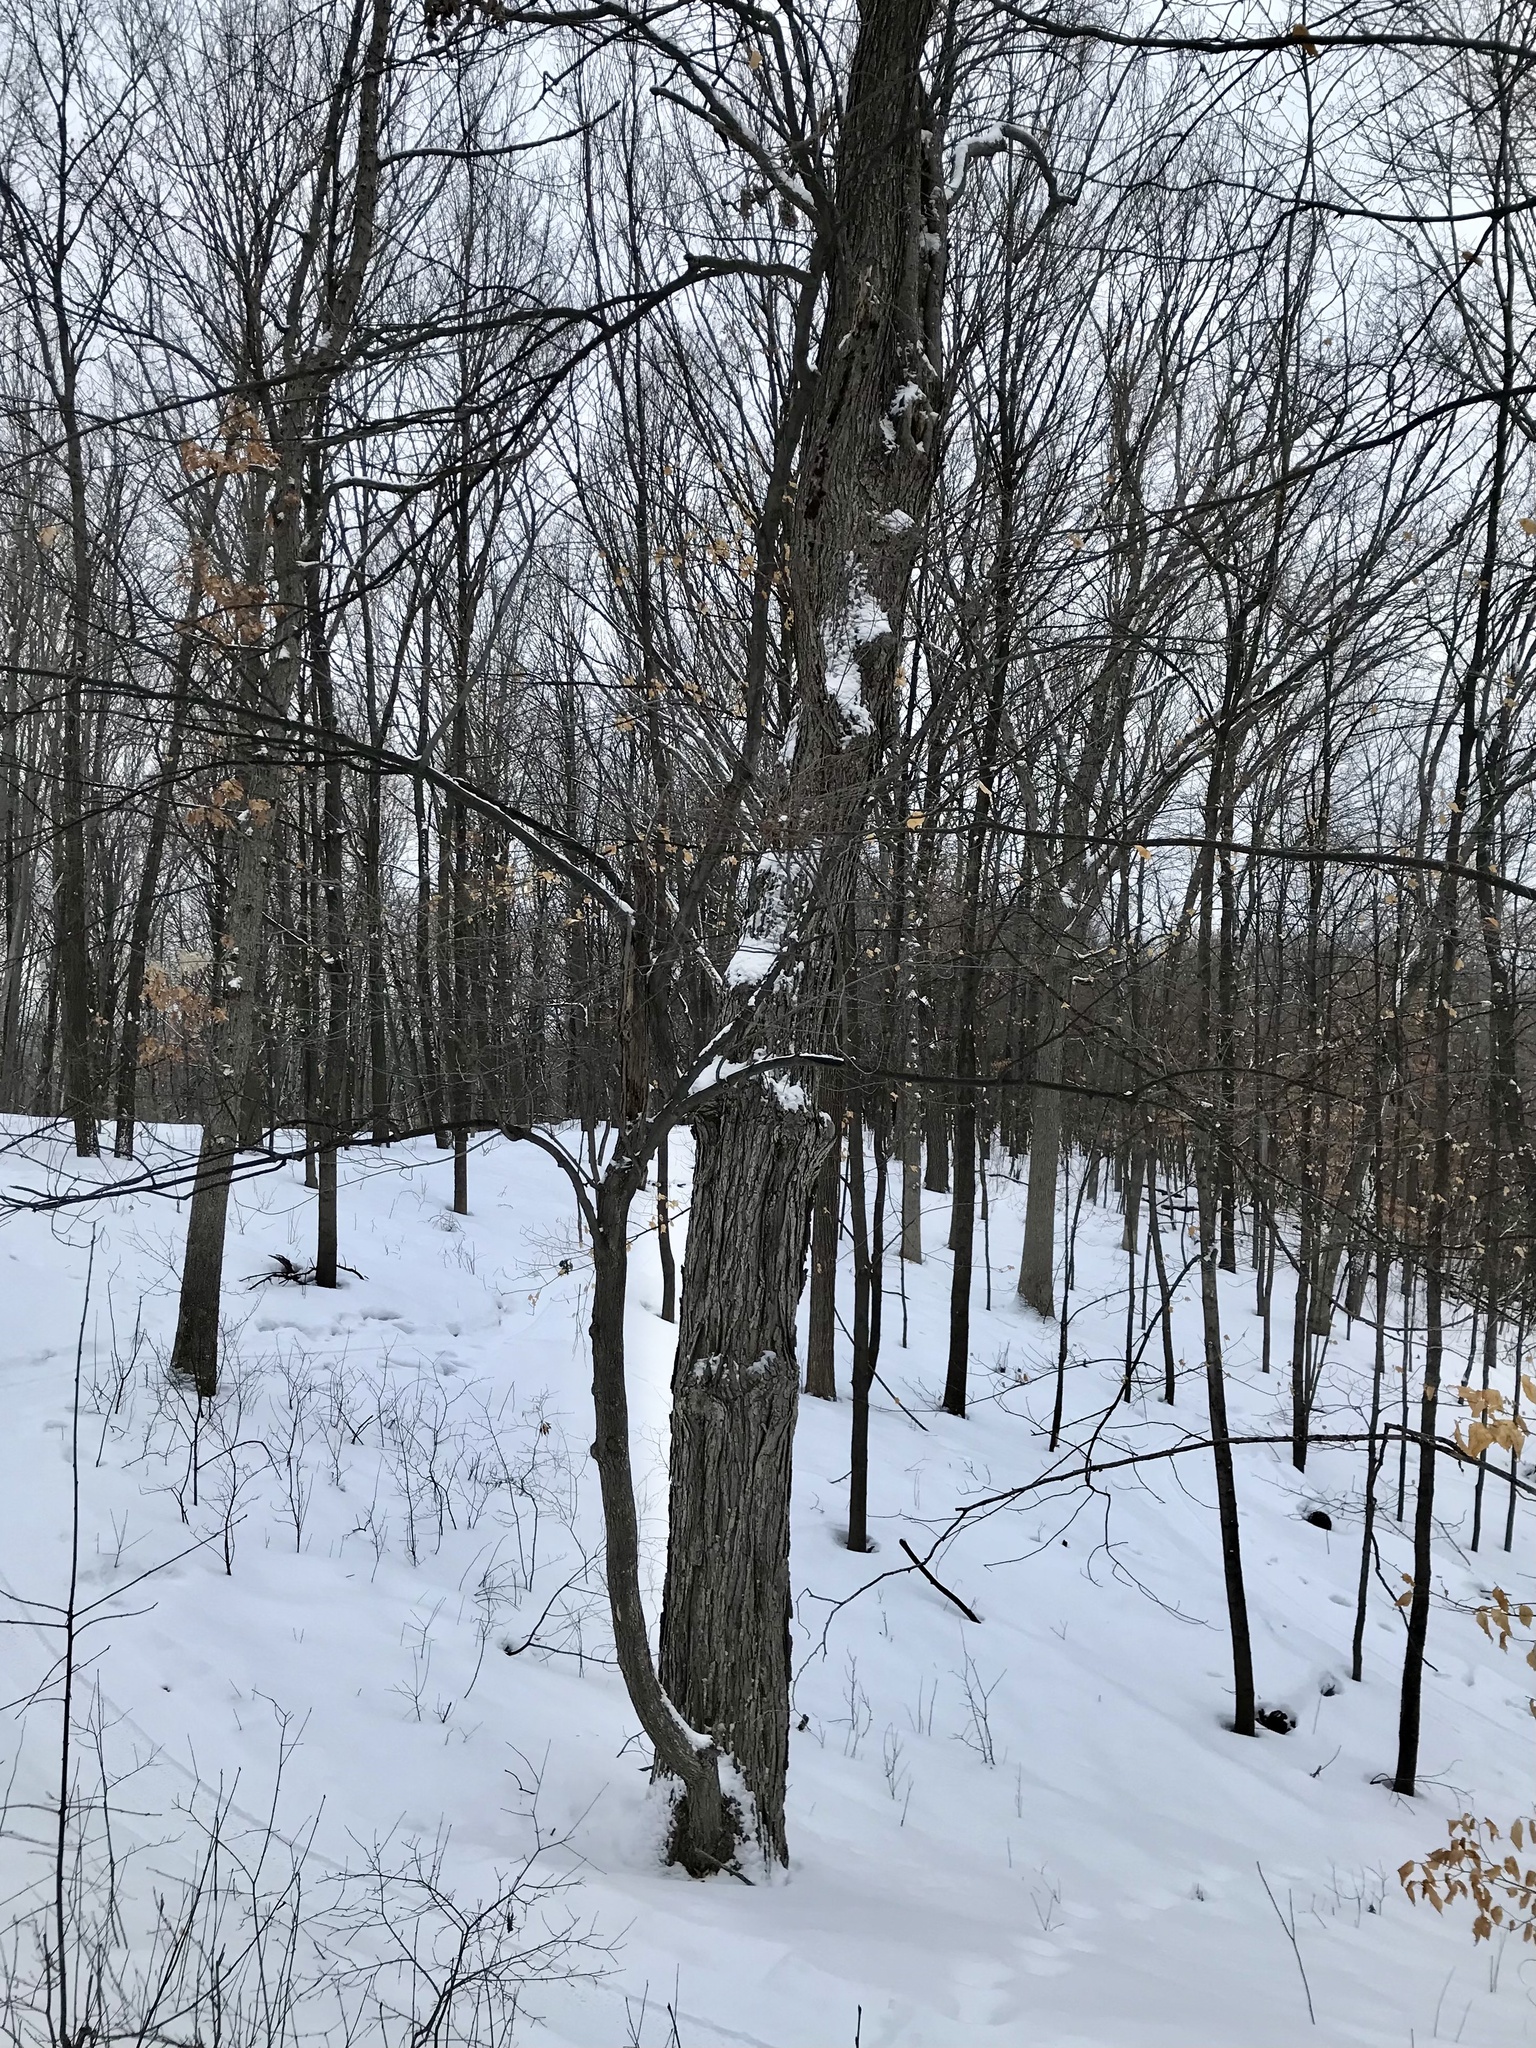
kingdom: Plantae
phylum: Tracheophyta
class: Magnoliopsida
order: Sapindales
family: Sapindaceae
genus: Acer
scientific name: Acer saccharum
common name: Sugar maple
